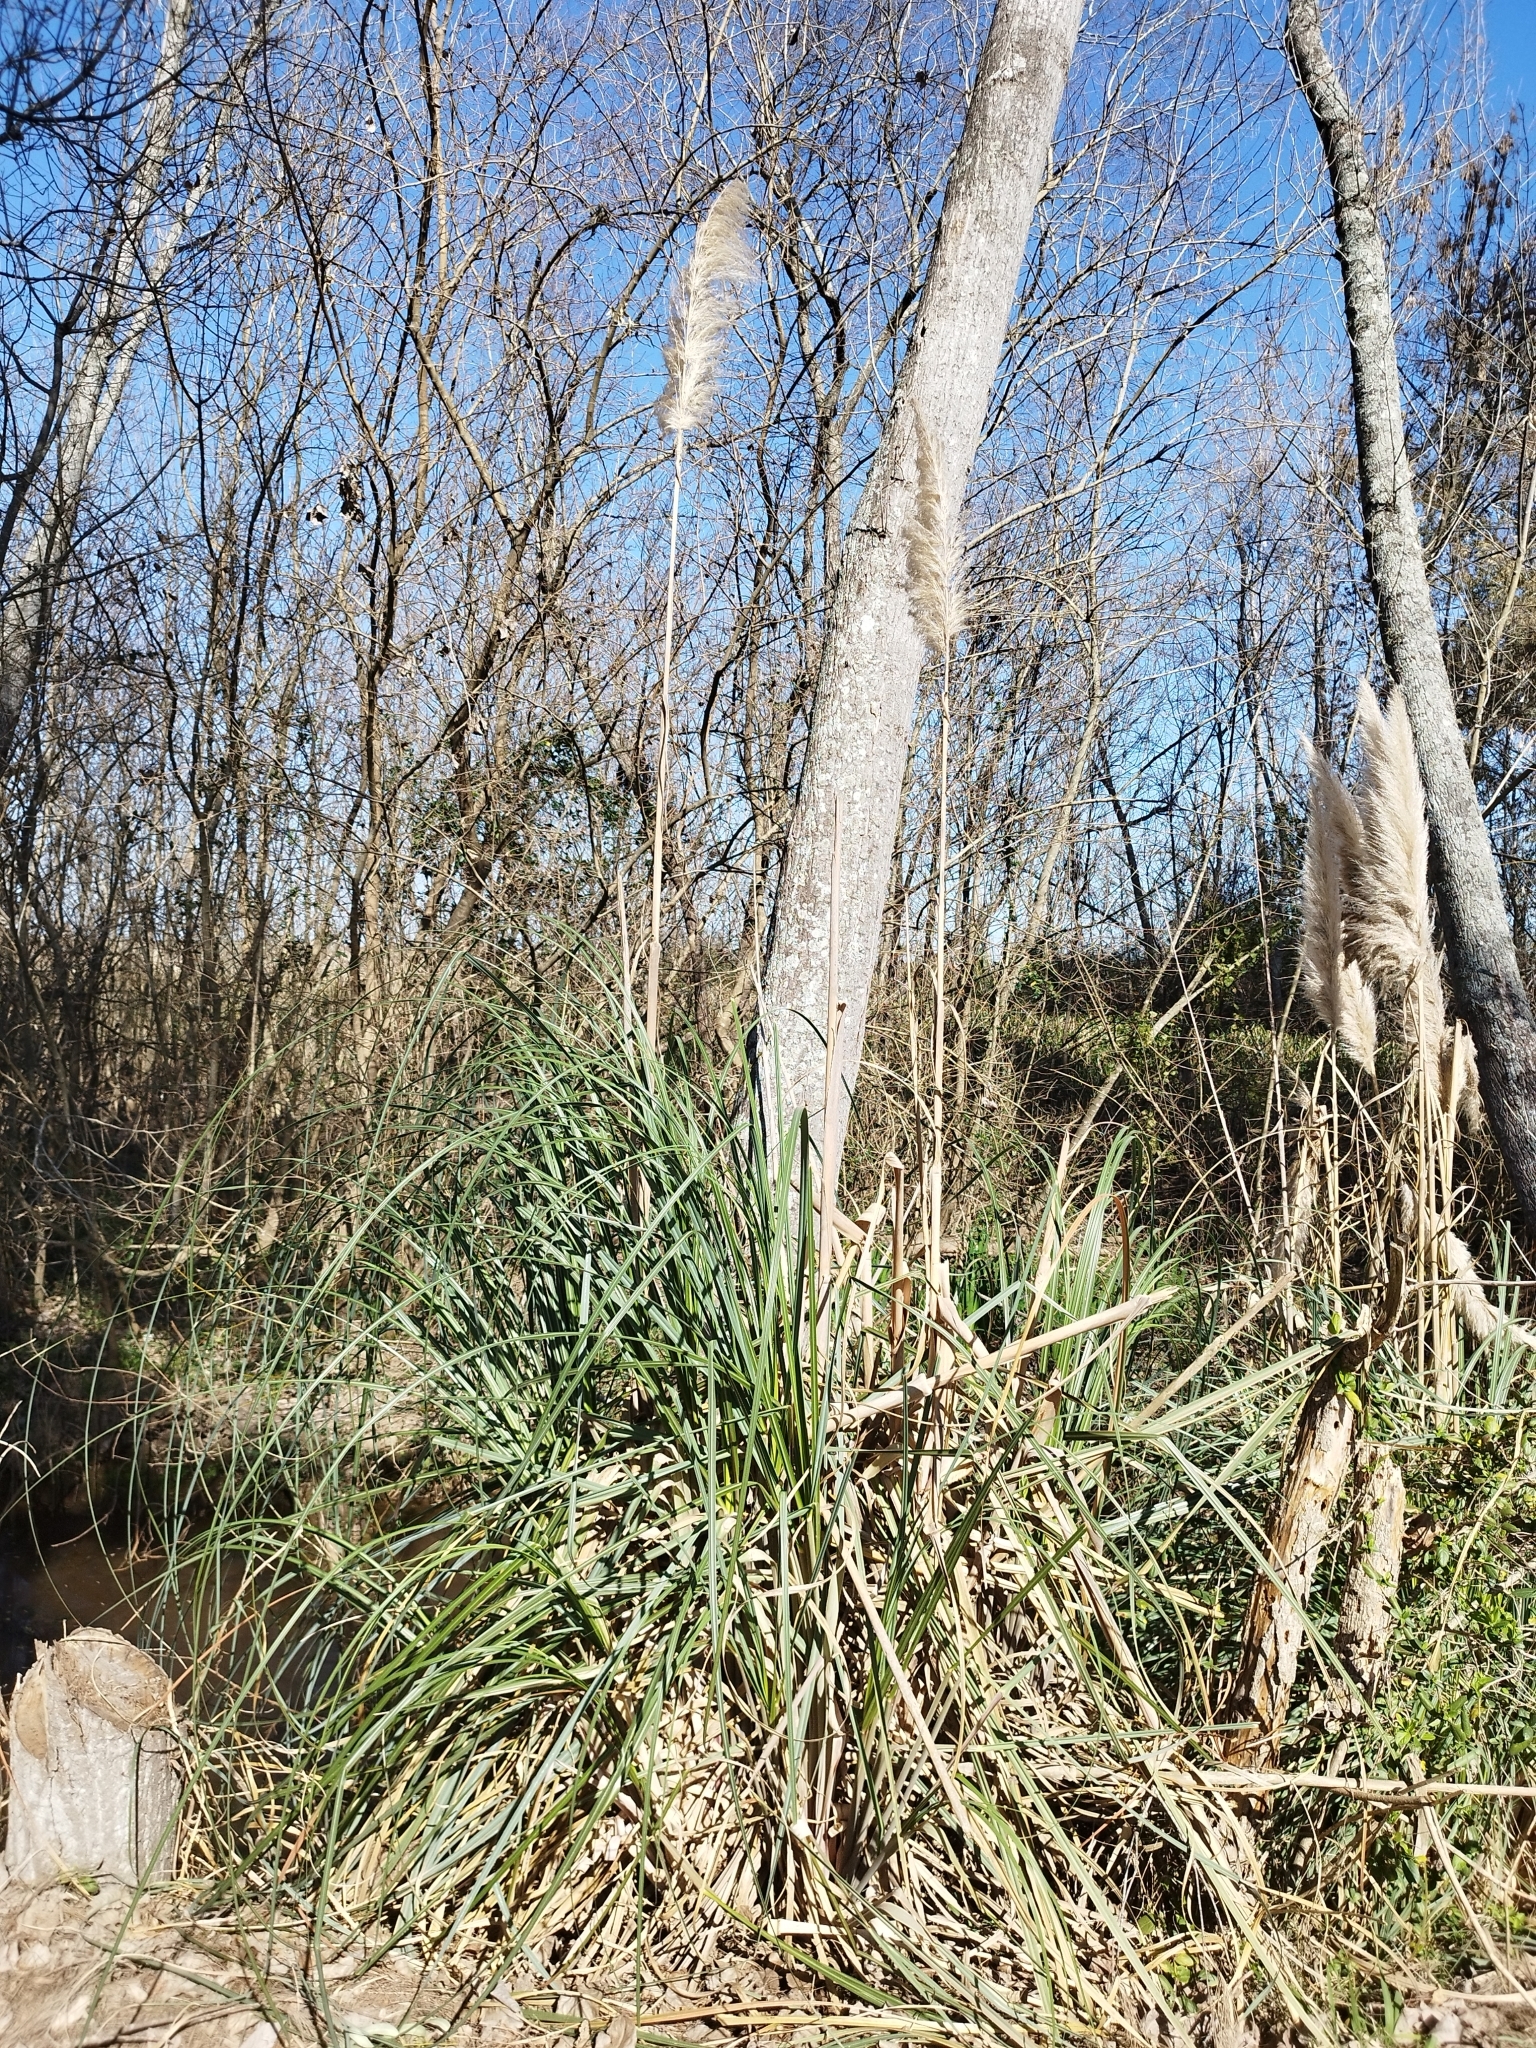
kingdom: Plantae
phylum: Tracheophyta
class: Liliopsida
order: Poales
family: Poaceae
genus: Cortaderia
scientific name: Cortaderia selloana
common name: Uruguayan pampas grass
